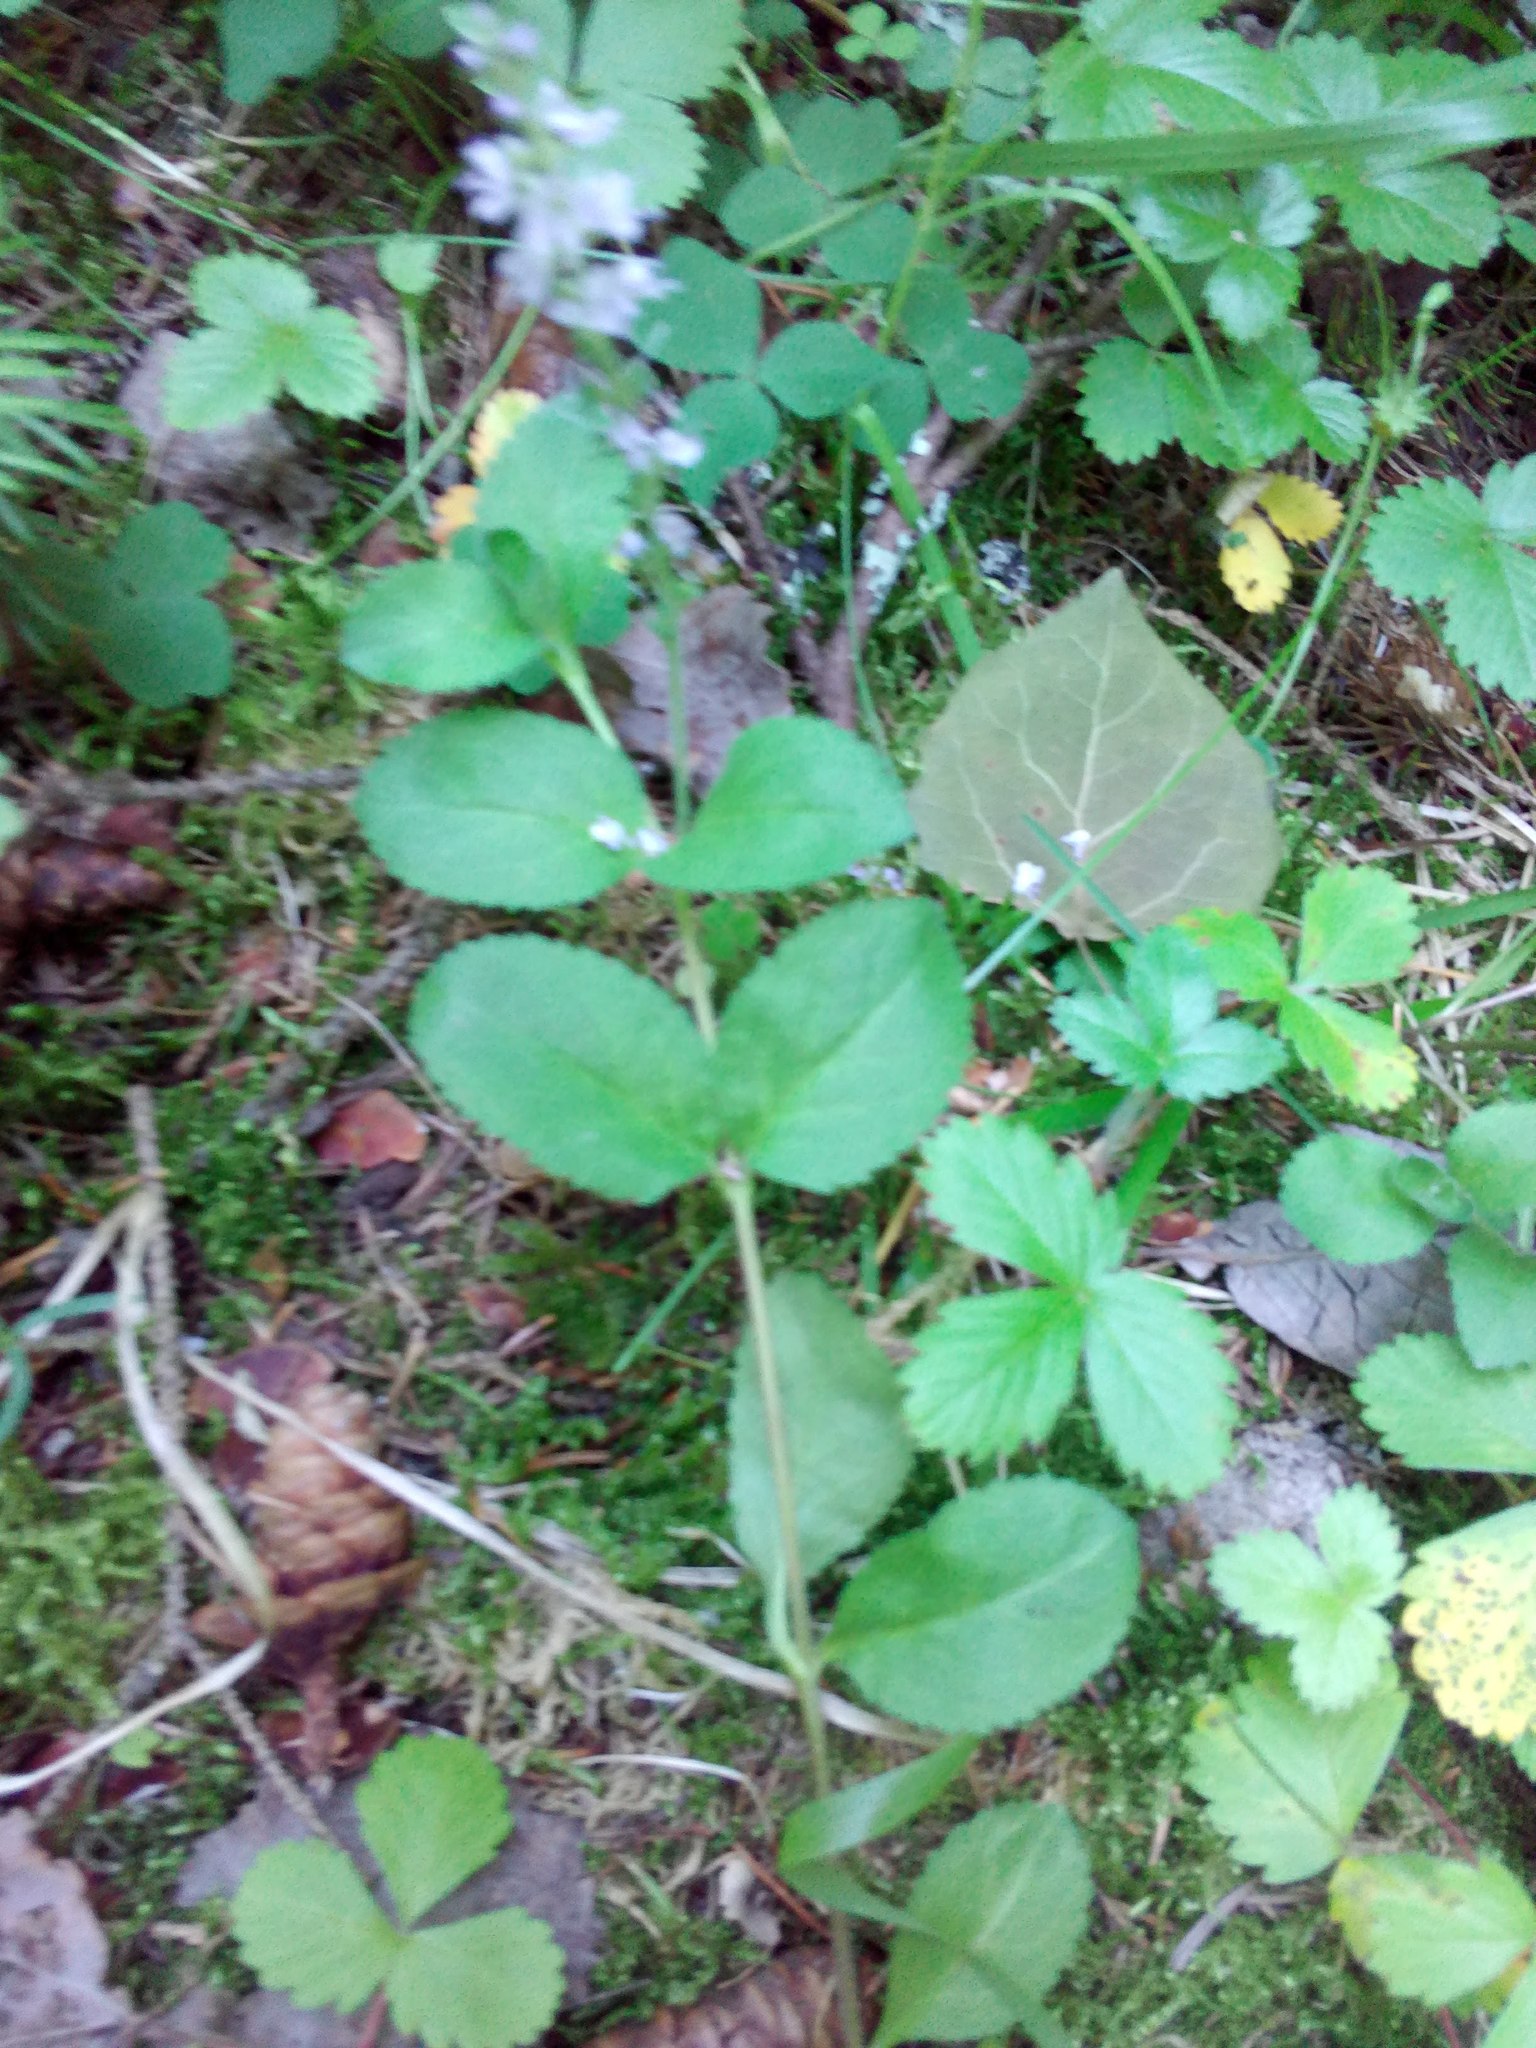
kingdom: Plantae
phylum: Tracheophyta
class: Magnoliopsida
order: Lamiales
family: Plantaginaceae
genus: Veronica
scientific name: Veronica officinalis
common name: Common speedwell
